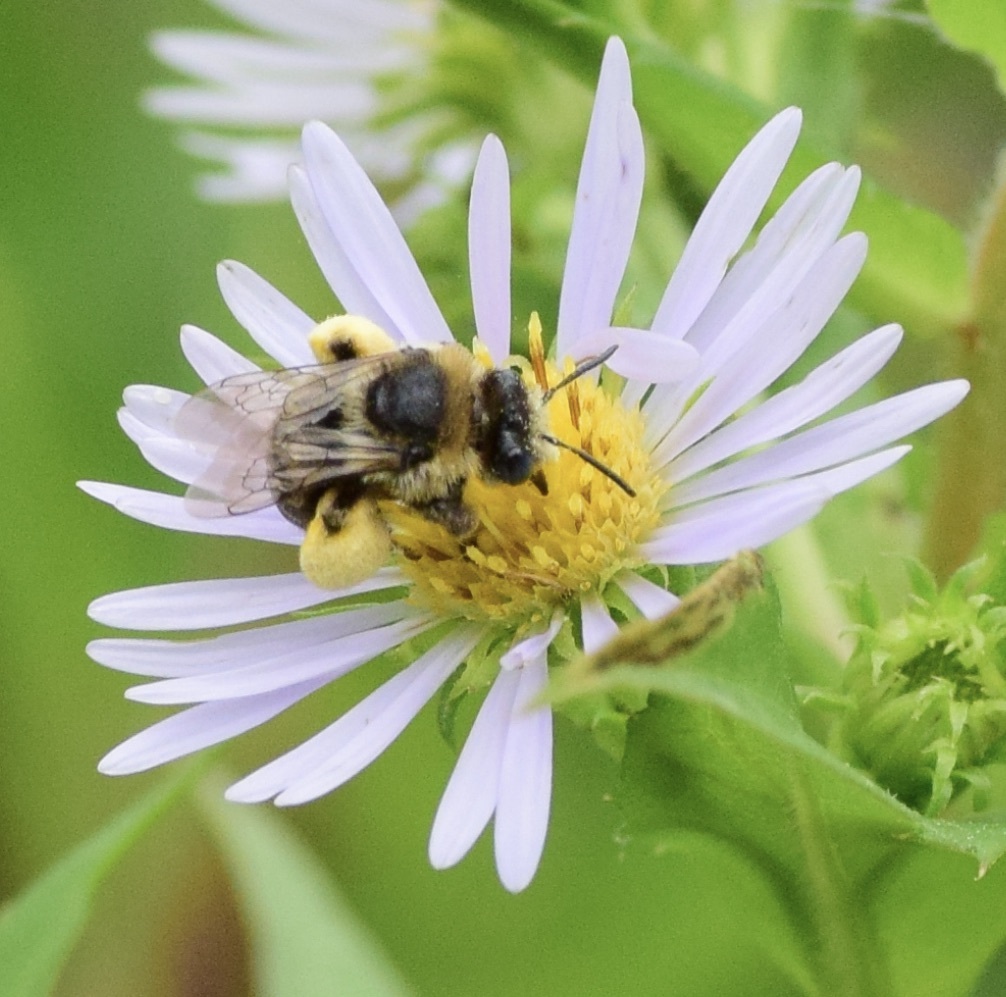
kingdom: Animalia
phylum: Arthropoda
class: Insecta
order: Hymenoptera
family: Apidae
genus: Melissodes
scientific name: Melissodes druriellus
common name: Drury's long-horned bee
